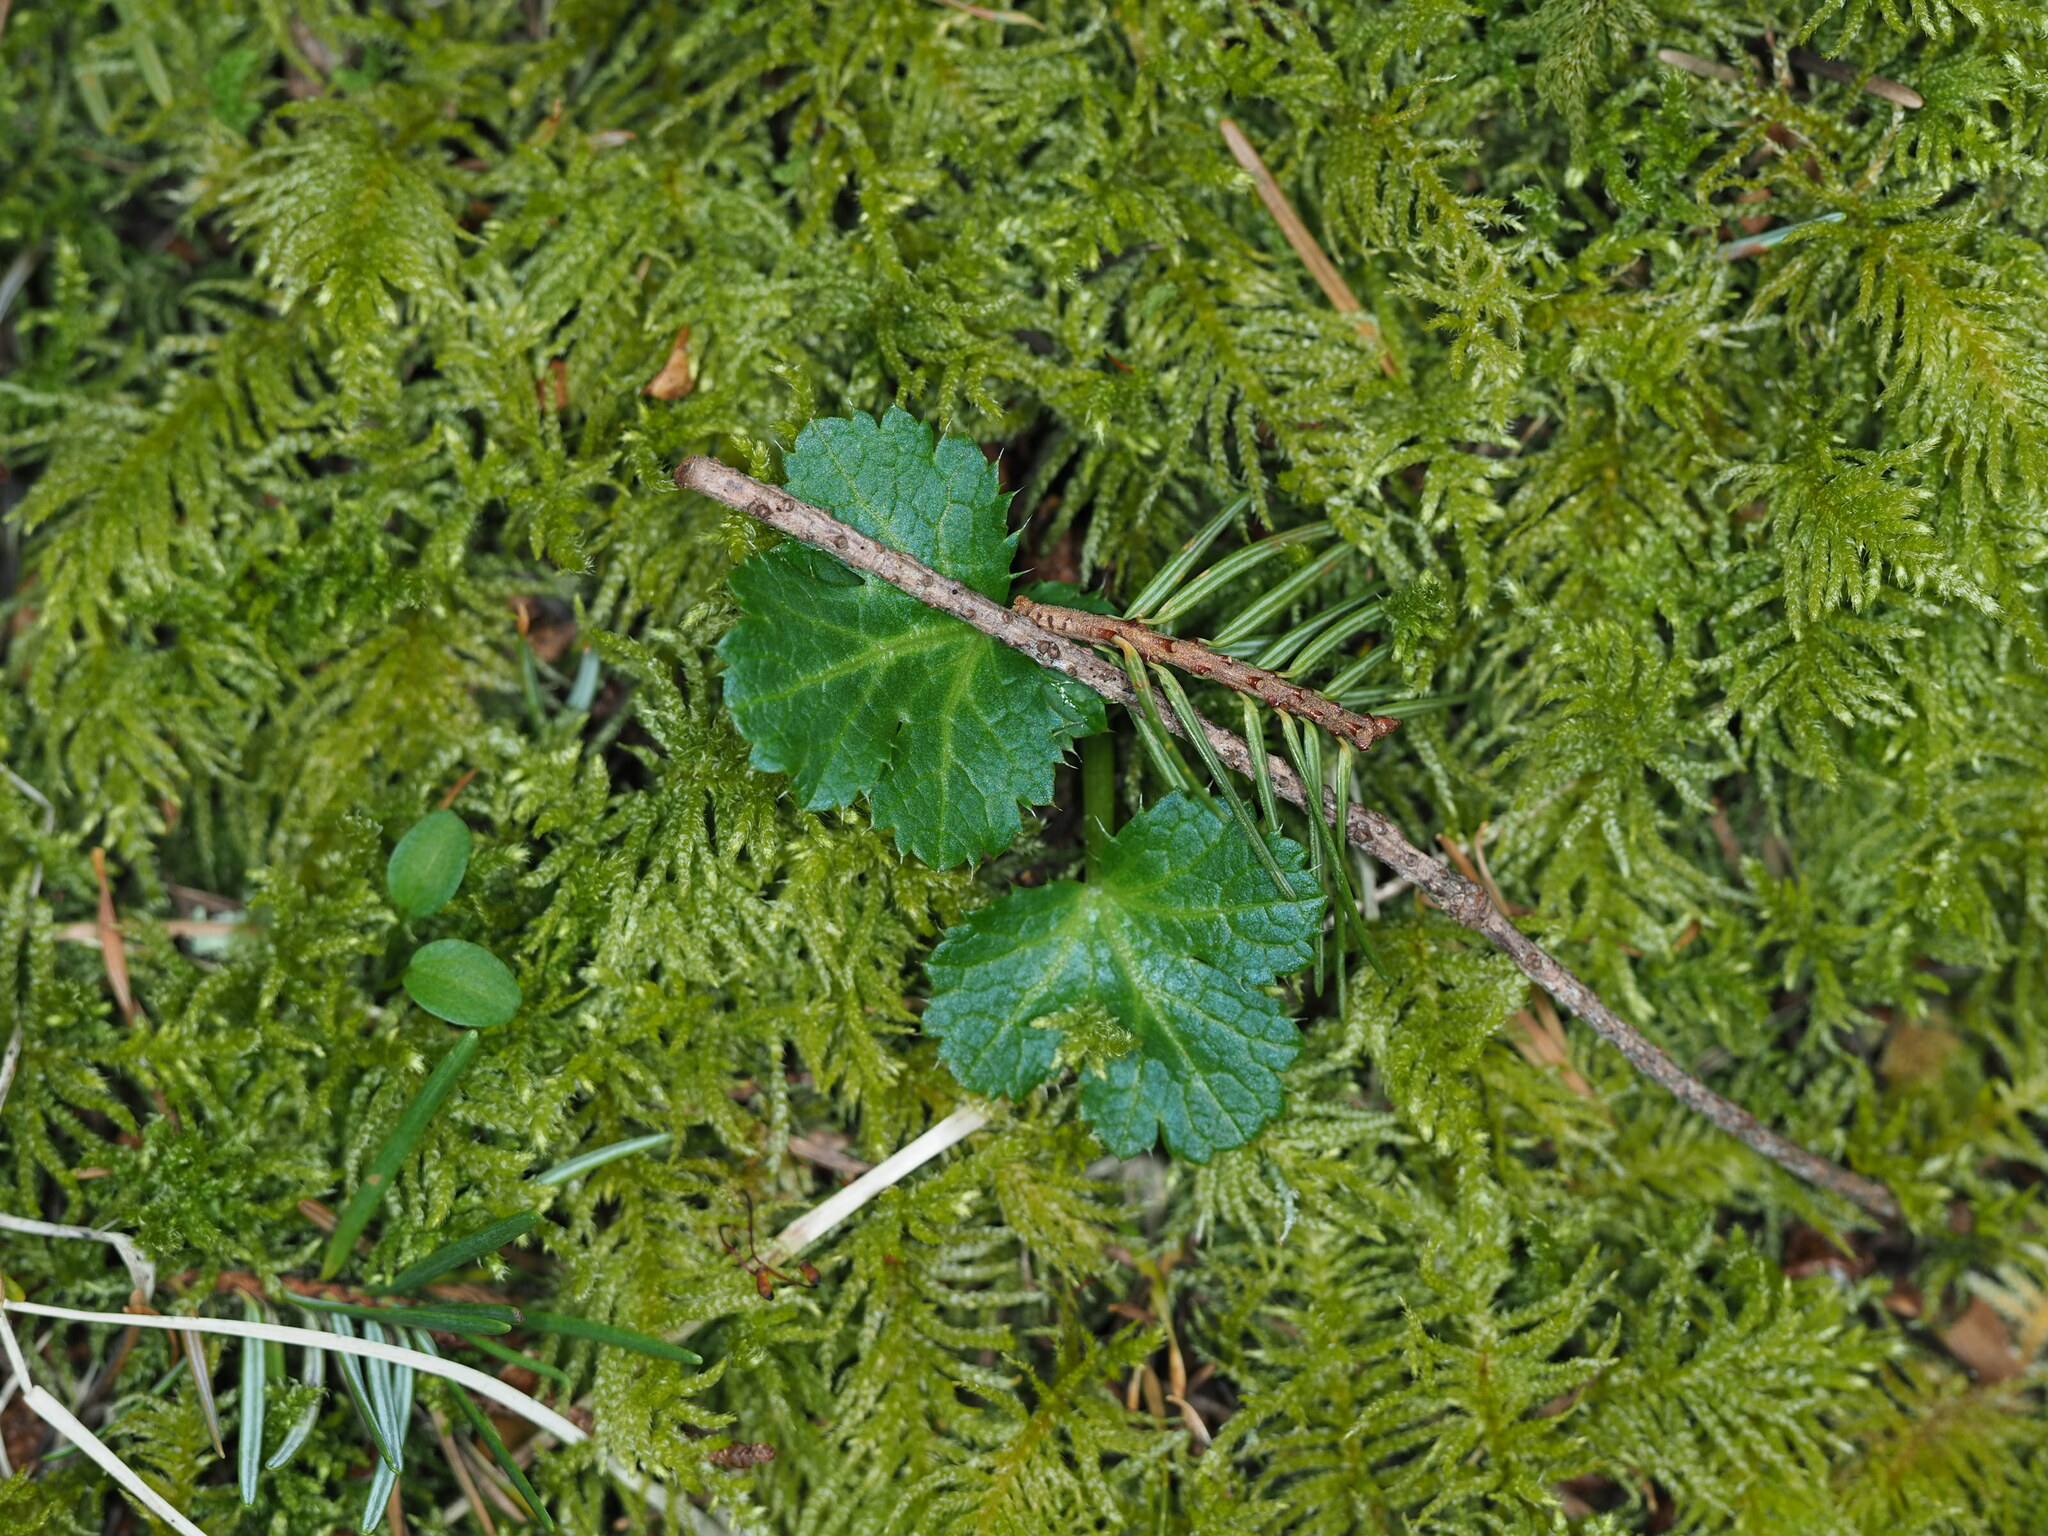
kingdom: Plantae
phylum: Tracheophyta
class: Magnoliopsida
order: Apiales
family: Apiaceae
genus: Sanicula
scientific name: Sanicula crassicaulis
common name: Western snakeroot
